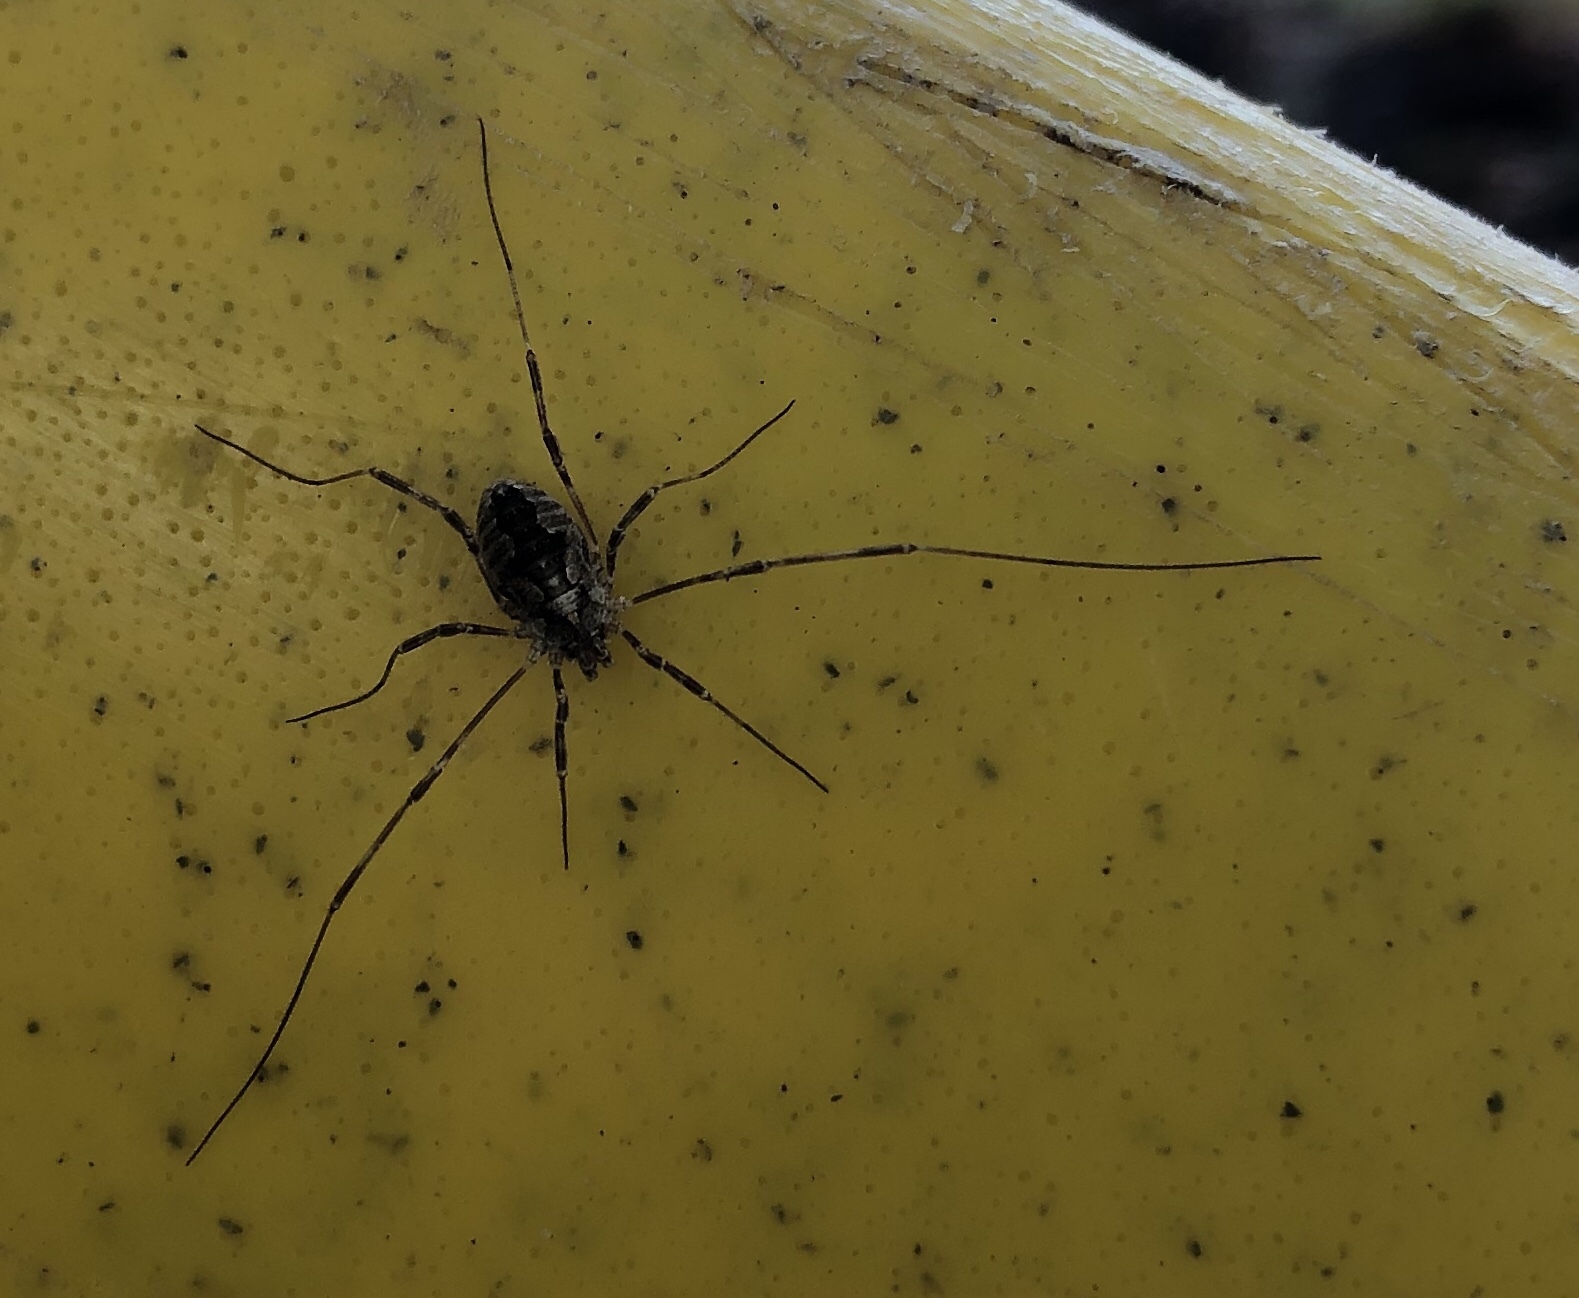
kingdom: Animalia
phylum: Arthropoda
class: Arachnida
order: Opiliones
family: Phalangiidae
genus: Odiellus
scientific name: Odiellus pictus
